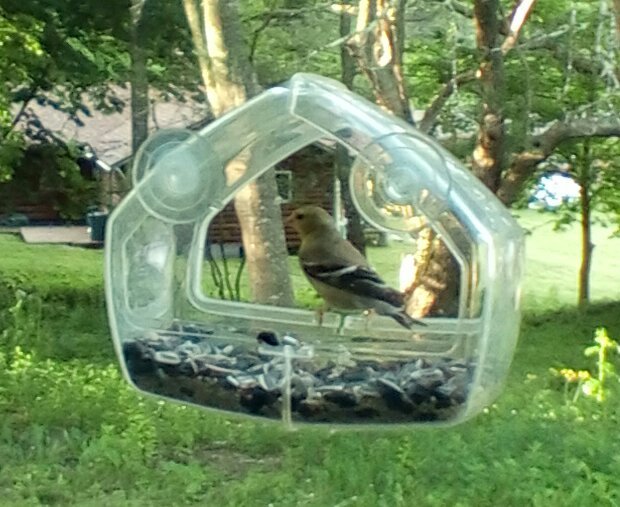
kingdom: Animalia
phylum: Chordata
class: Aves
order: Passeriformes
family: Fringillidae
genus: Spinus
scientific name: Spinus tristis
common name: American goldfinch
